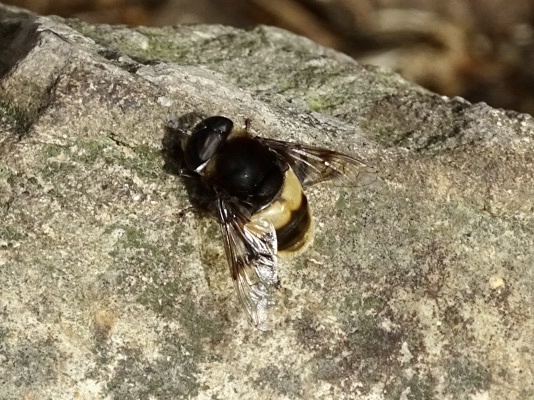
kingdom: Animalia
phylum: Arthropoda
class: Insecta
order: Diptera
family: Syrphidae
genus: Phytomia
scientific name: Phytomia zonata
